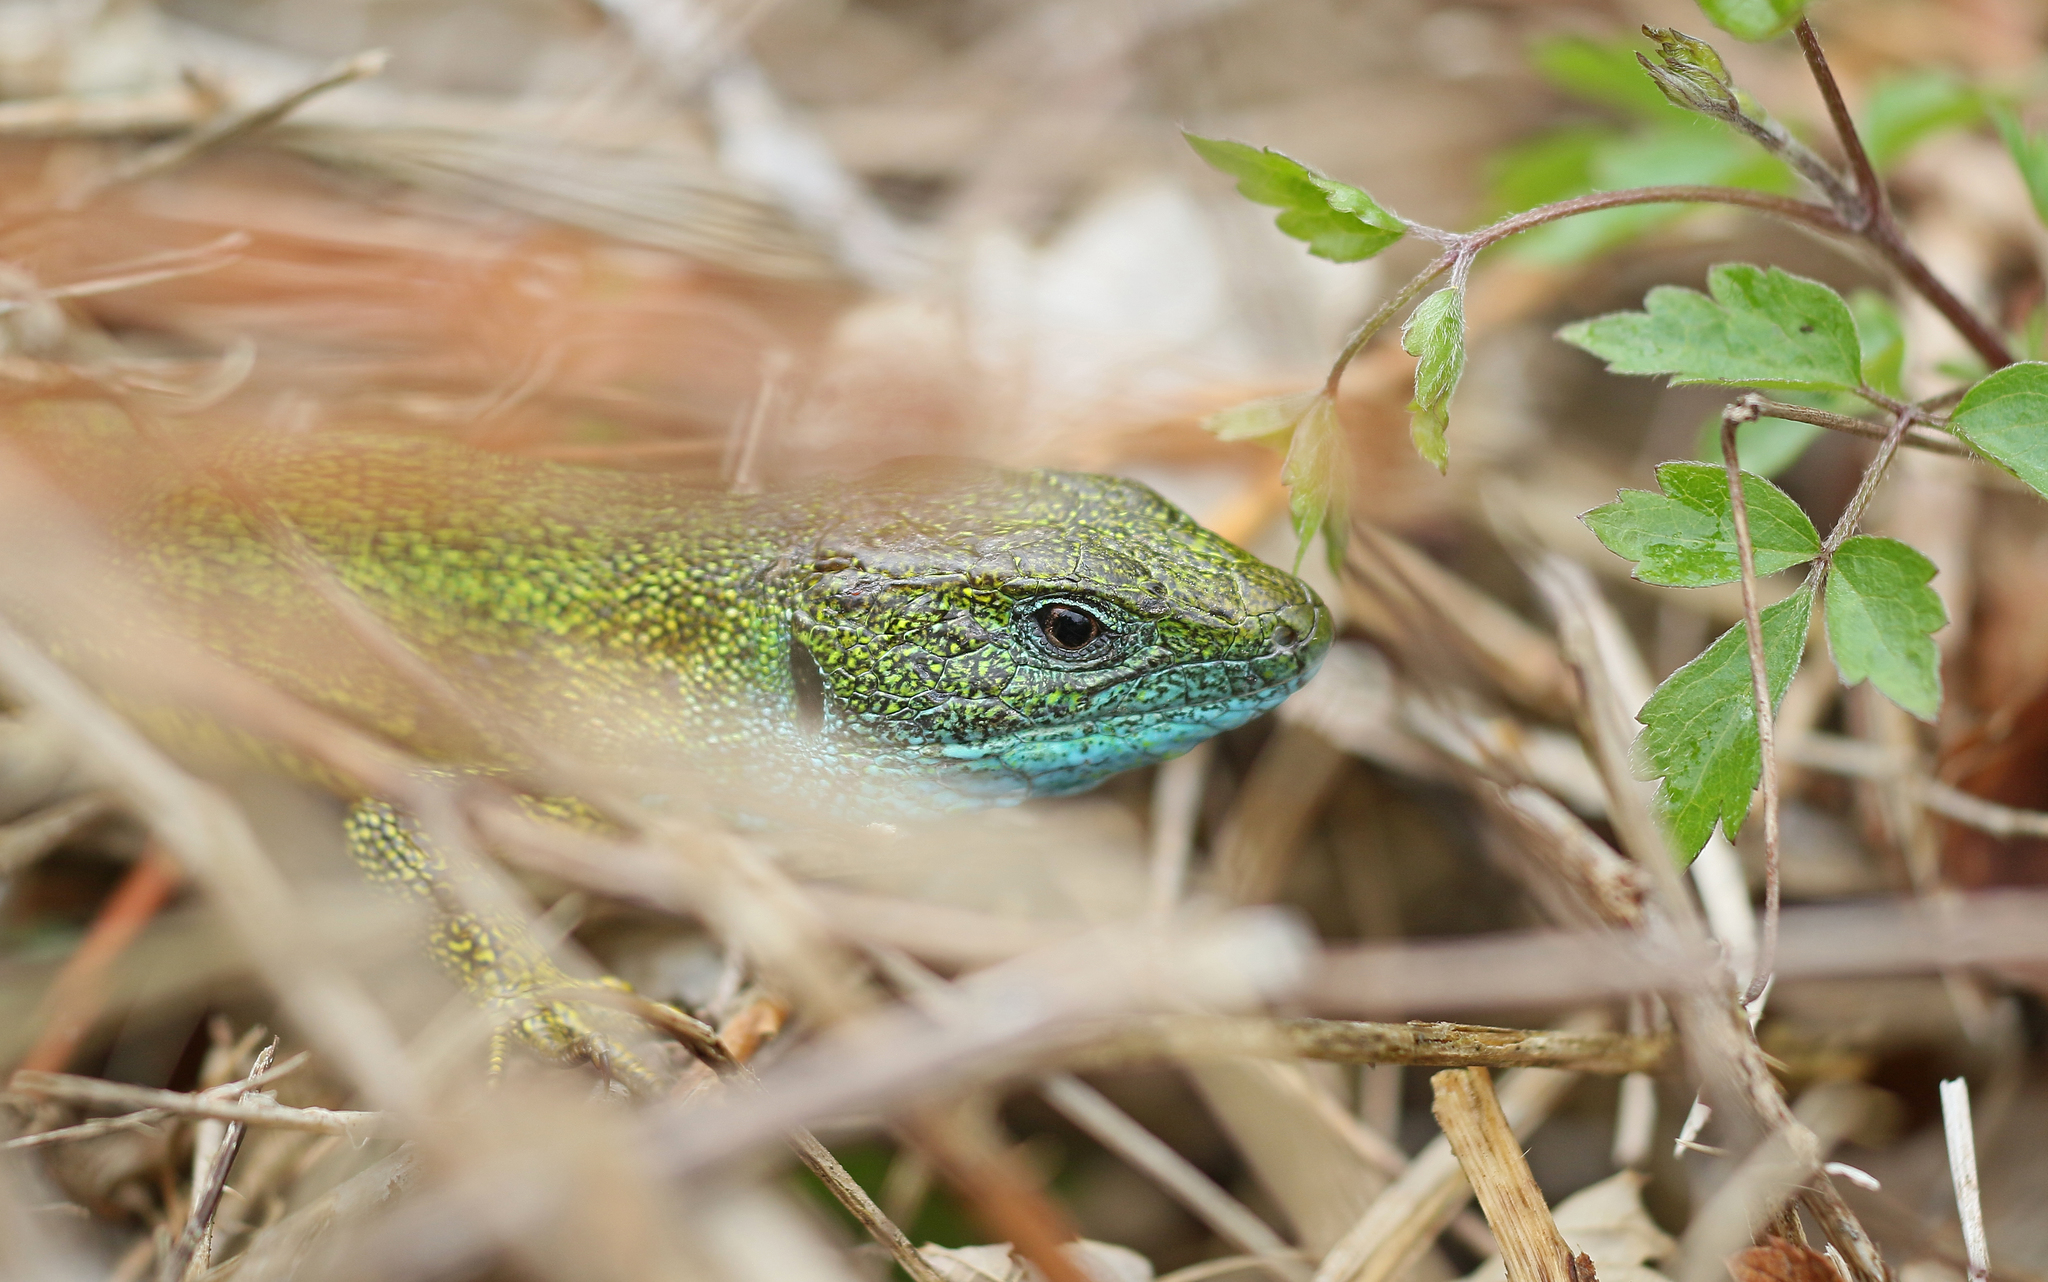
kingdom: Animalia
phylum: Chordata
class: Squamata
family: Lacertidae
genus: Lacerta
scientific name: Lacerta viridis
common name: European green lizard
